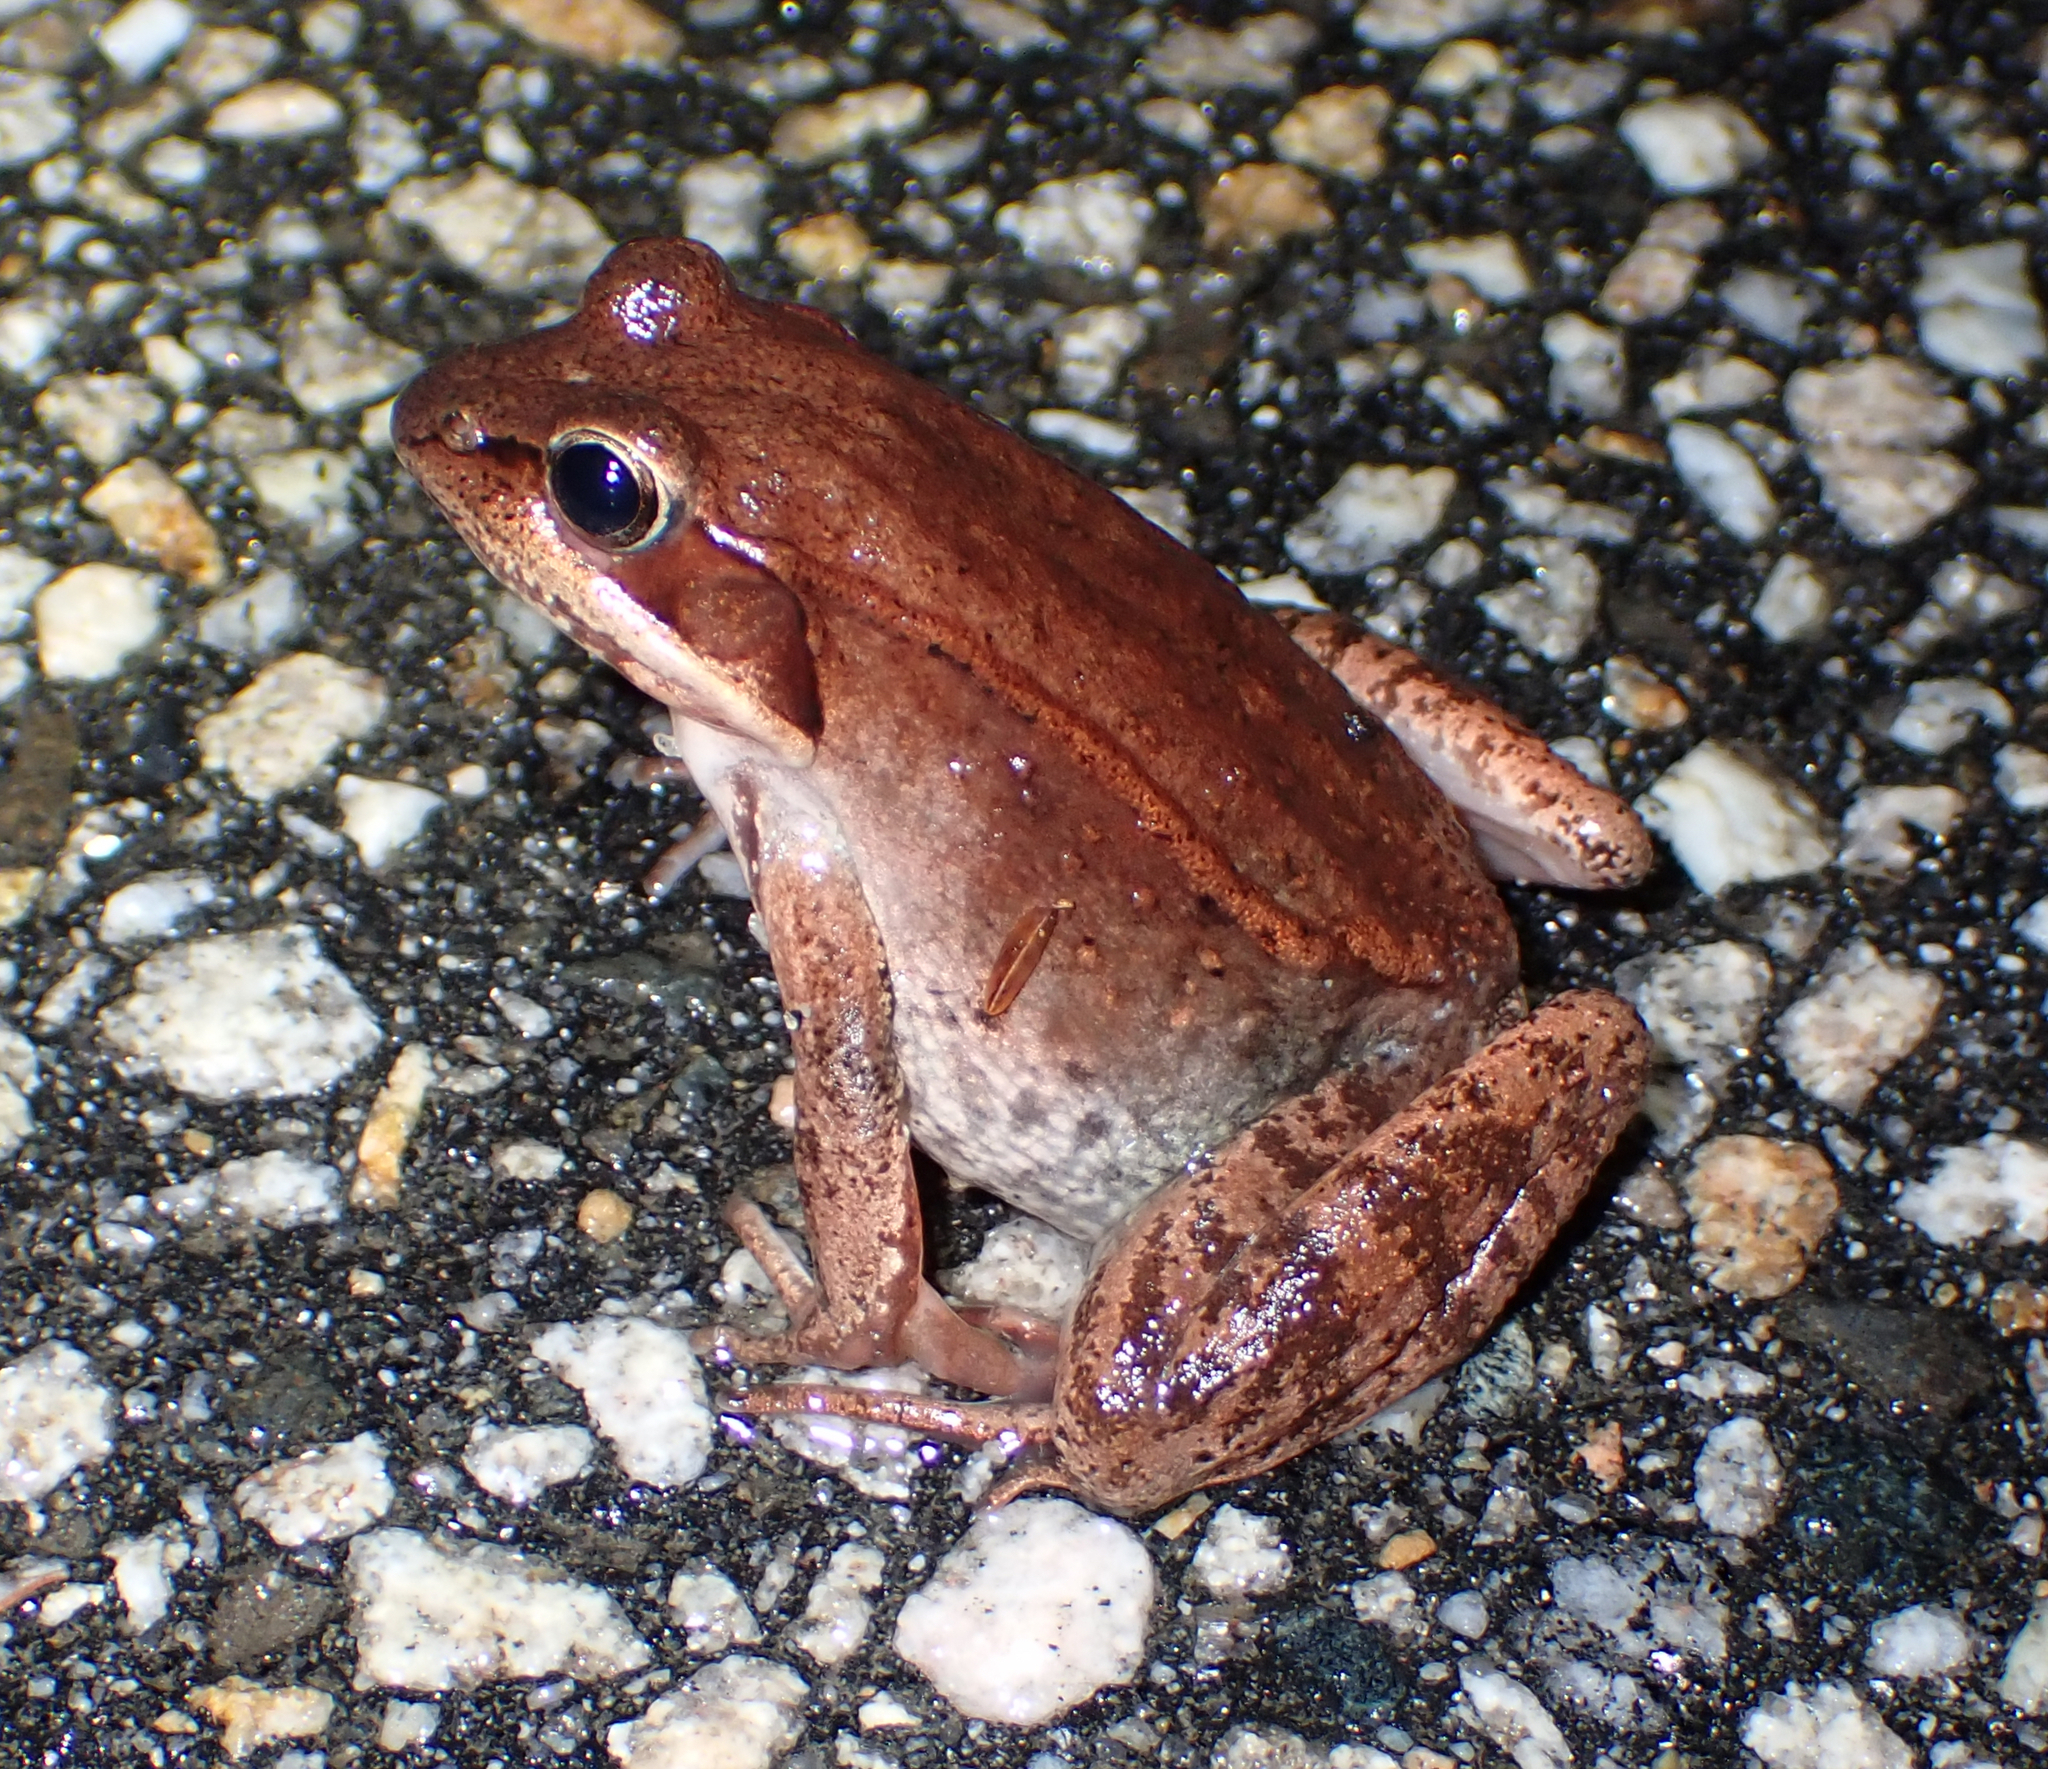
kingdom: Animalia
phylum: Chordata
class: Amphibia
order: Anura
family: Ranidae
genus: Lithobates
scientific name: Lithobates sylvaticus
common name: Wood frog
